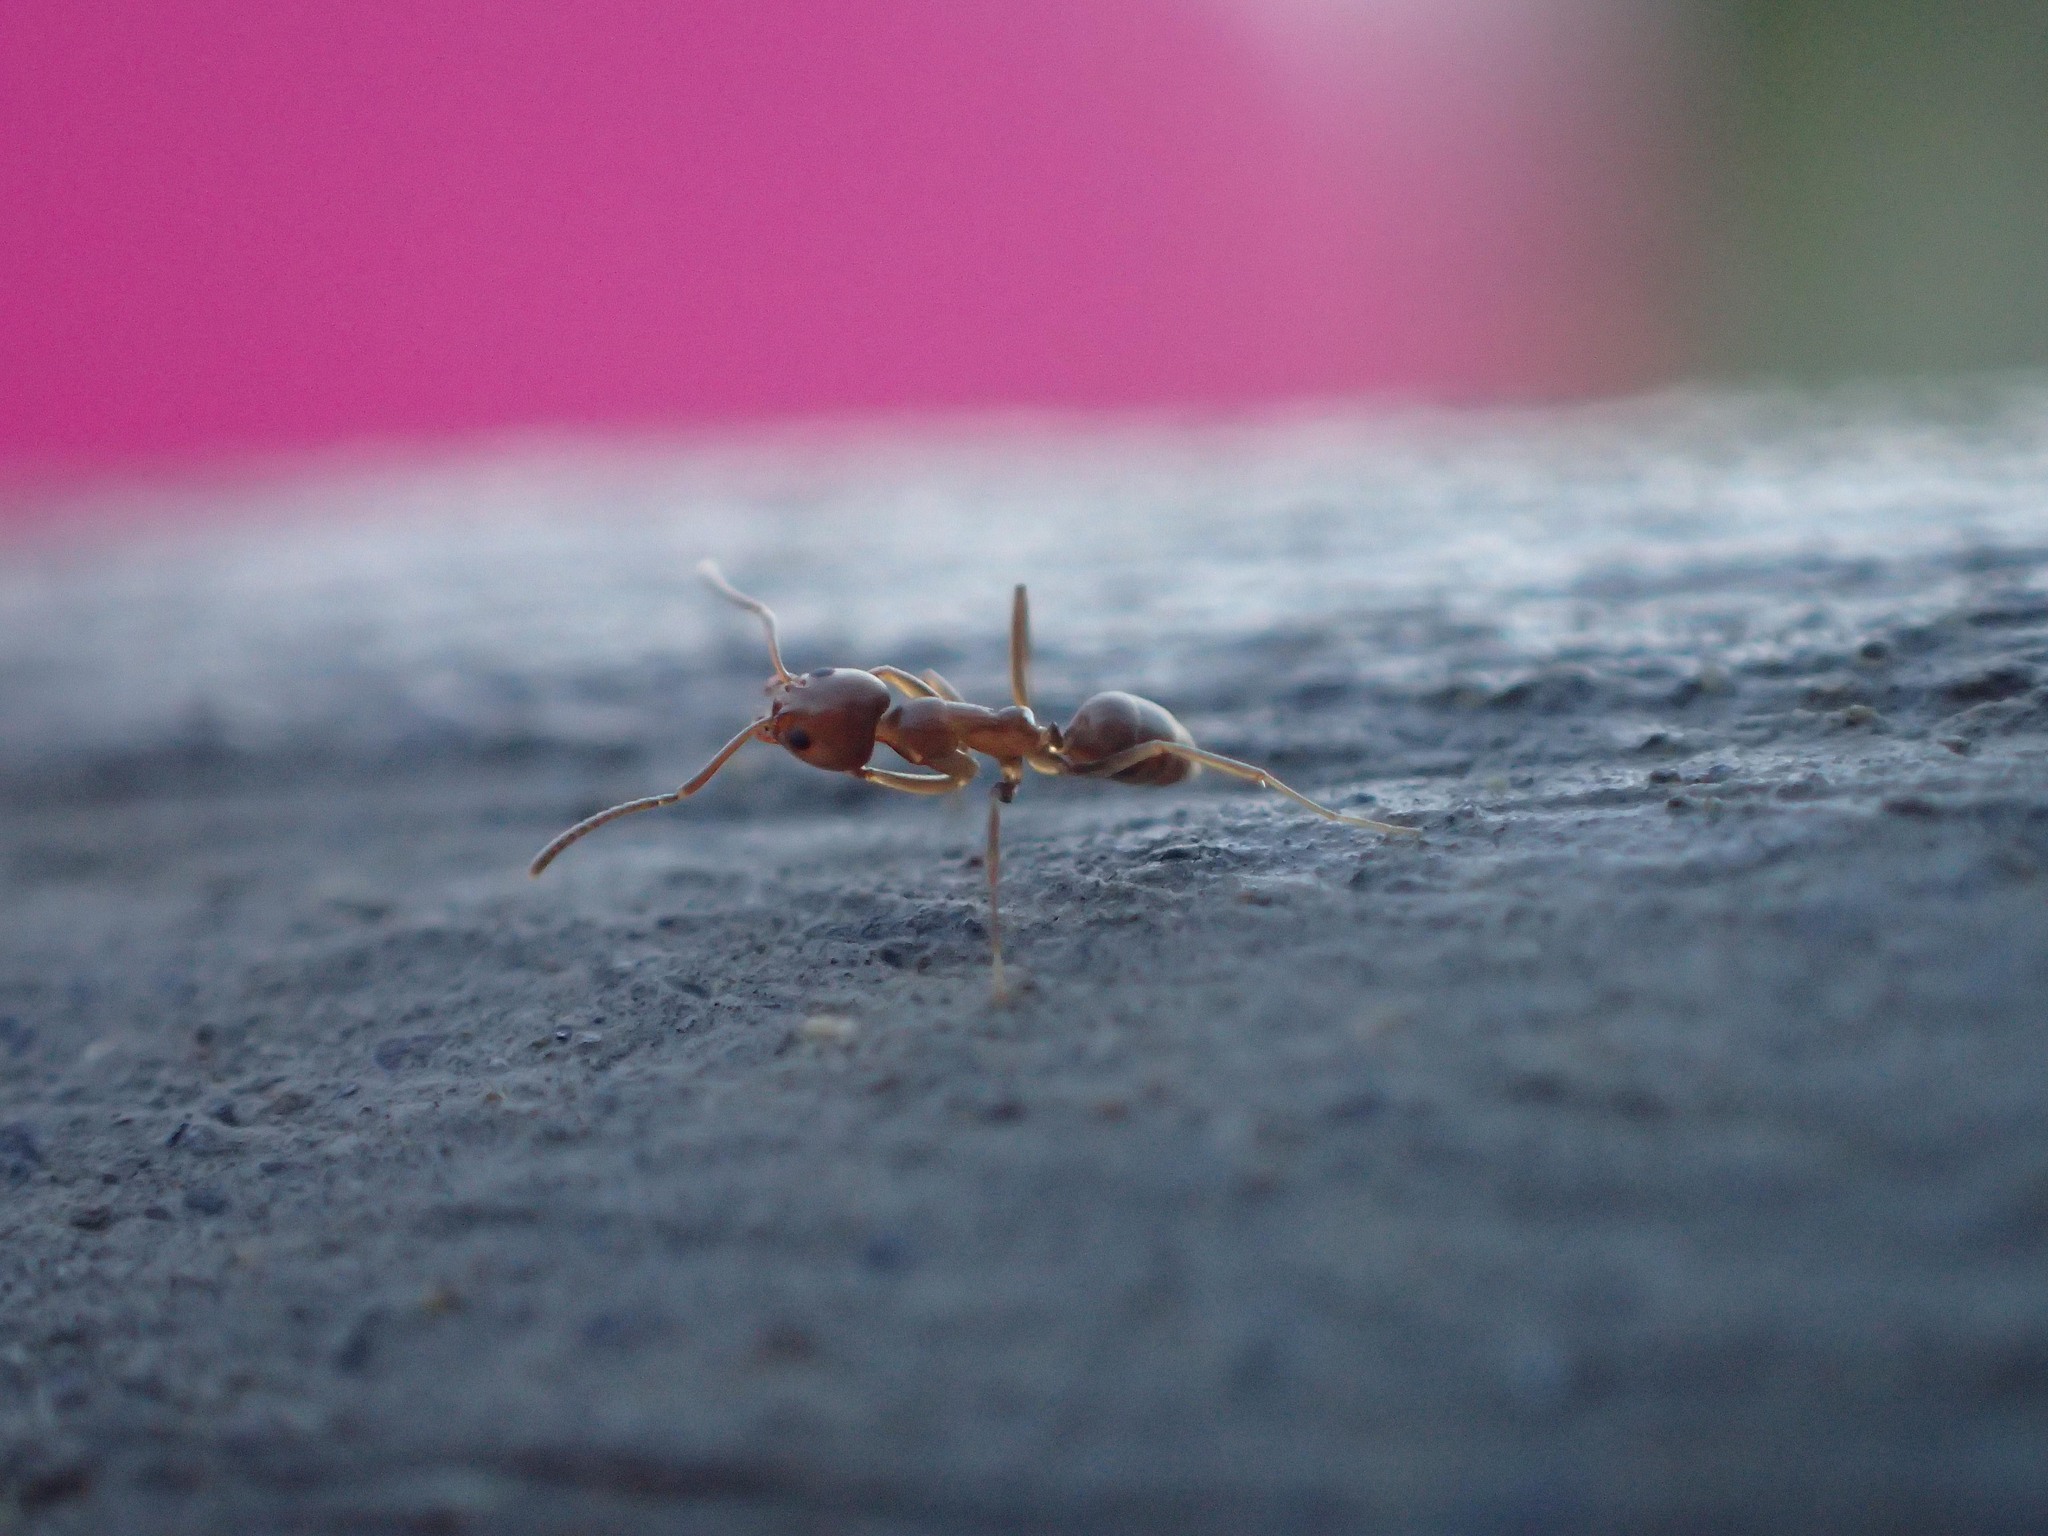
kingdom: Animalia
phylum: Arthropoda
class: Insecta
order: Hymenoptera
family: Formicidae
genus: Linepithema
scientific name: Linepithema humile
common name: Argentine ant
